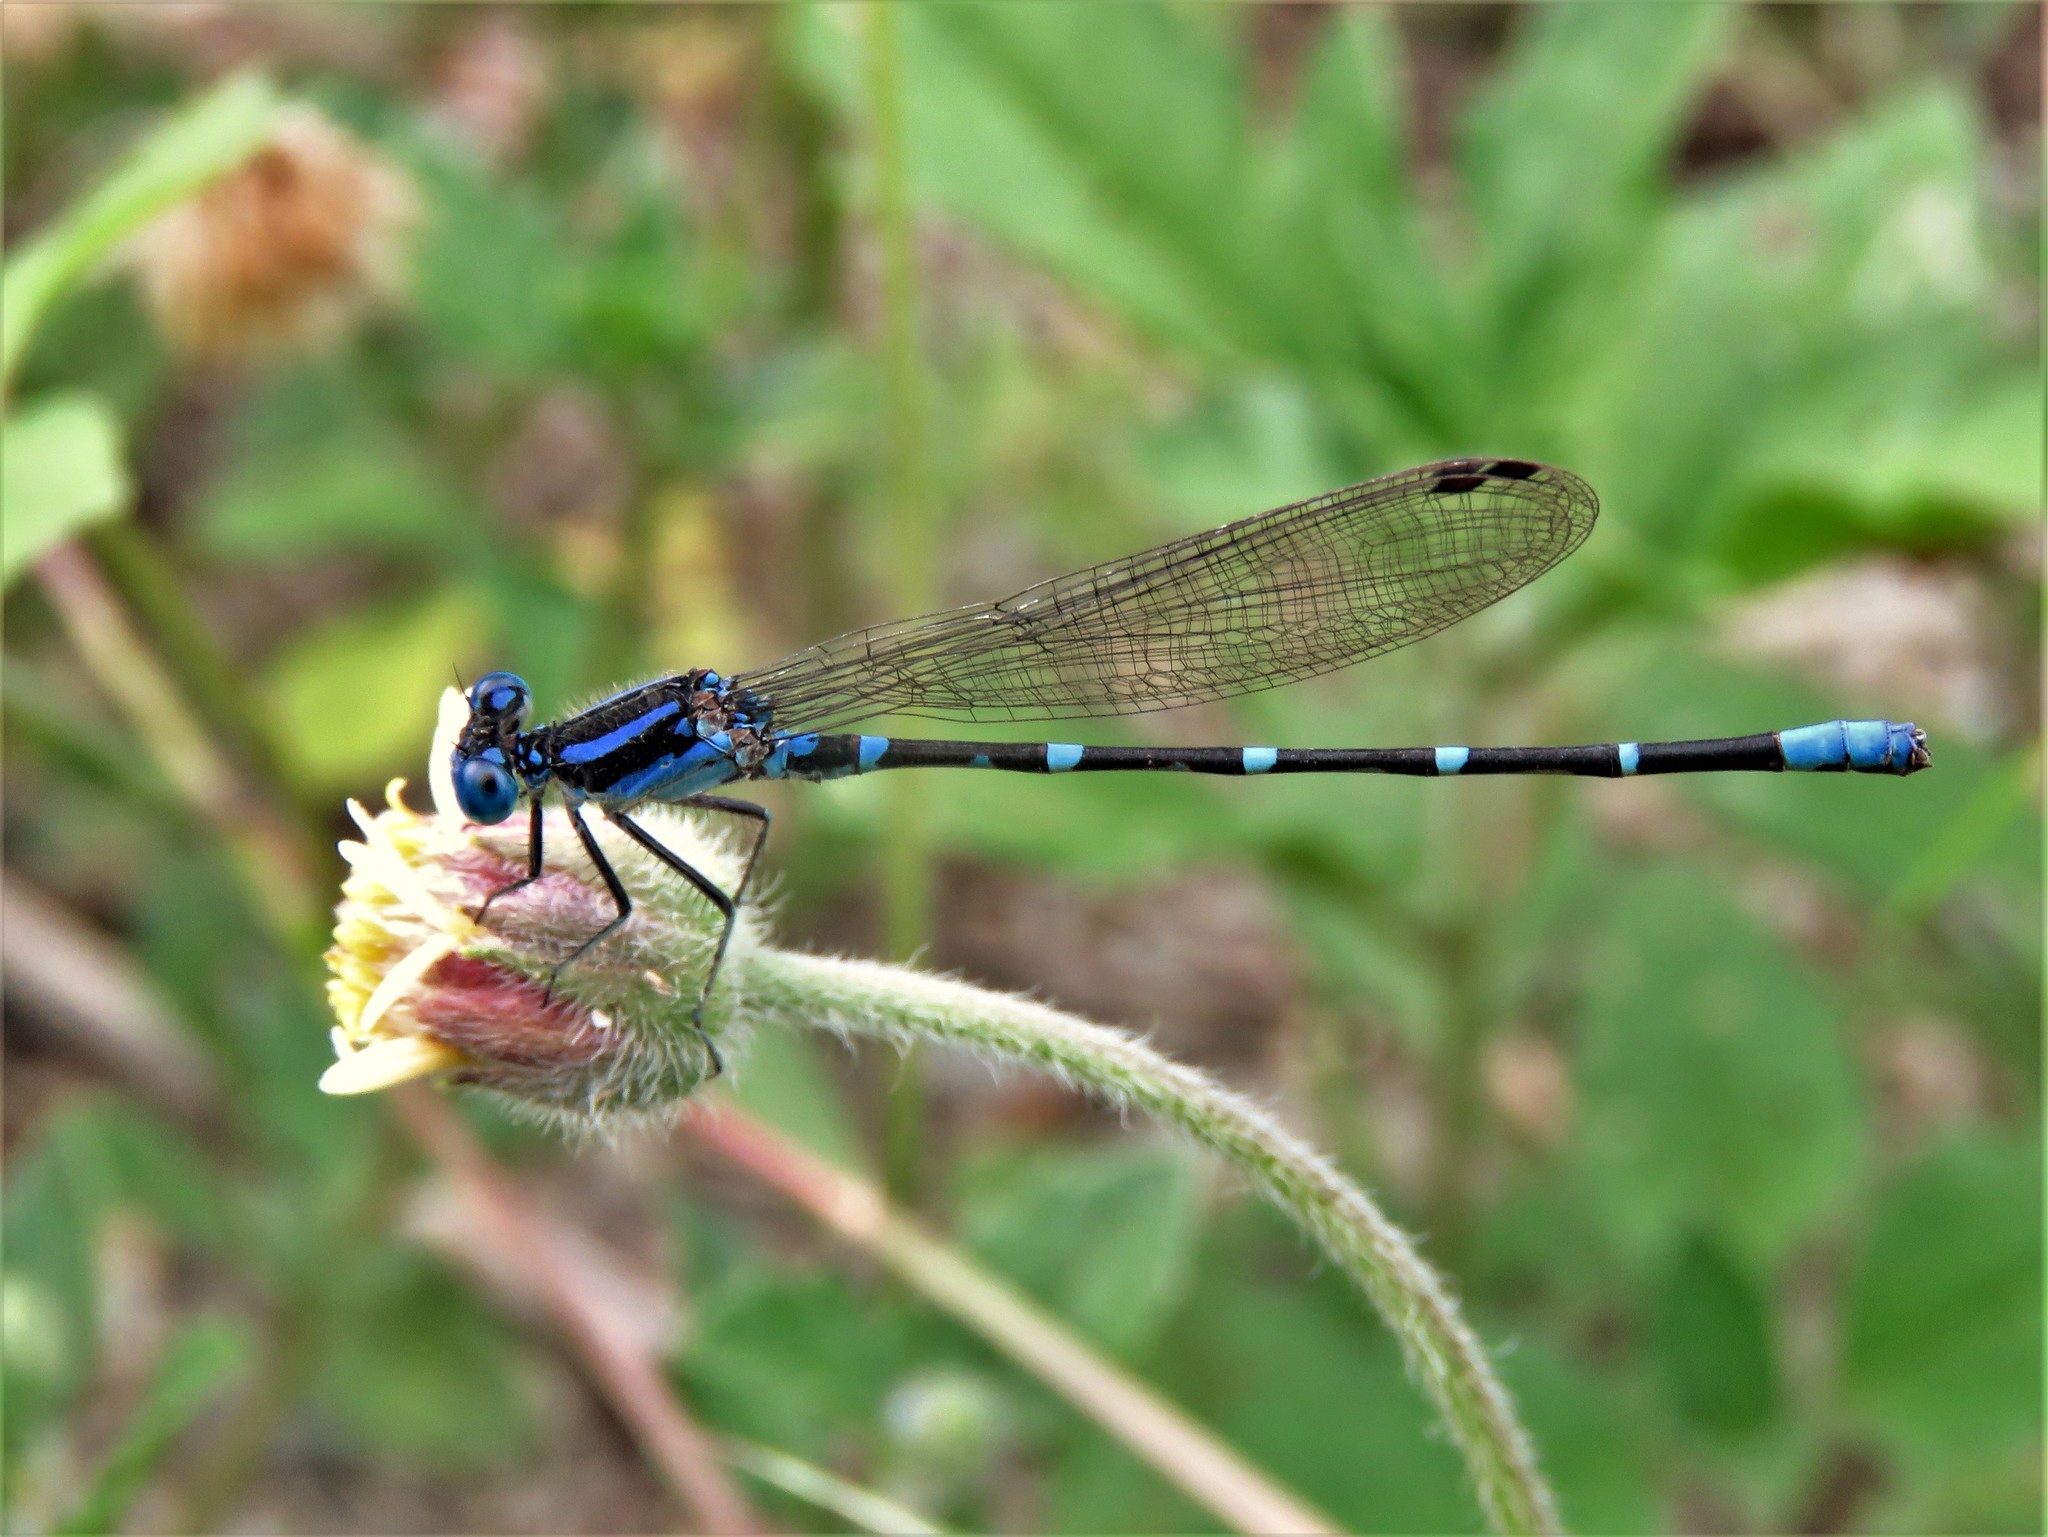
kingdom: Animalia
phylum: Arthropoda
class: Insecta
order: Odonata
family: Coenagrionidae
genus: Argia
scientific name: Argia sedula
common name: Blue-ringed dancer
